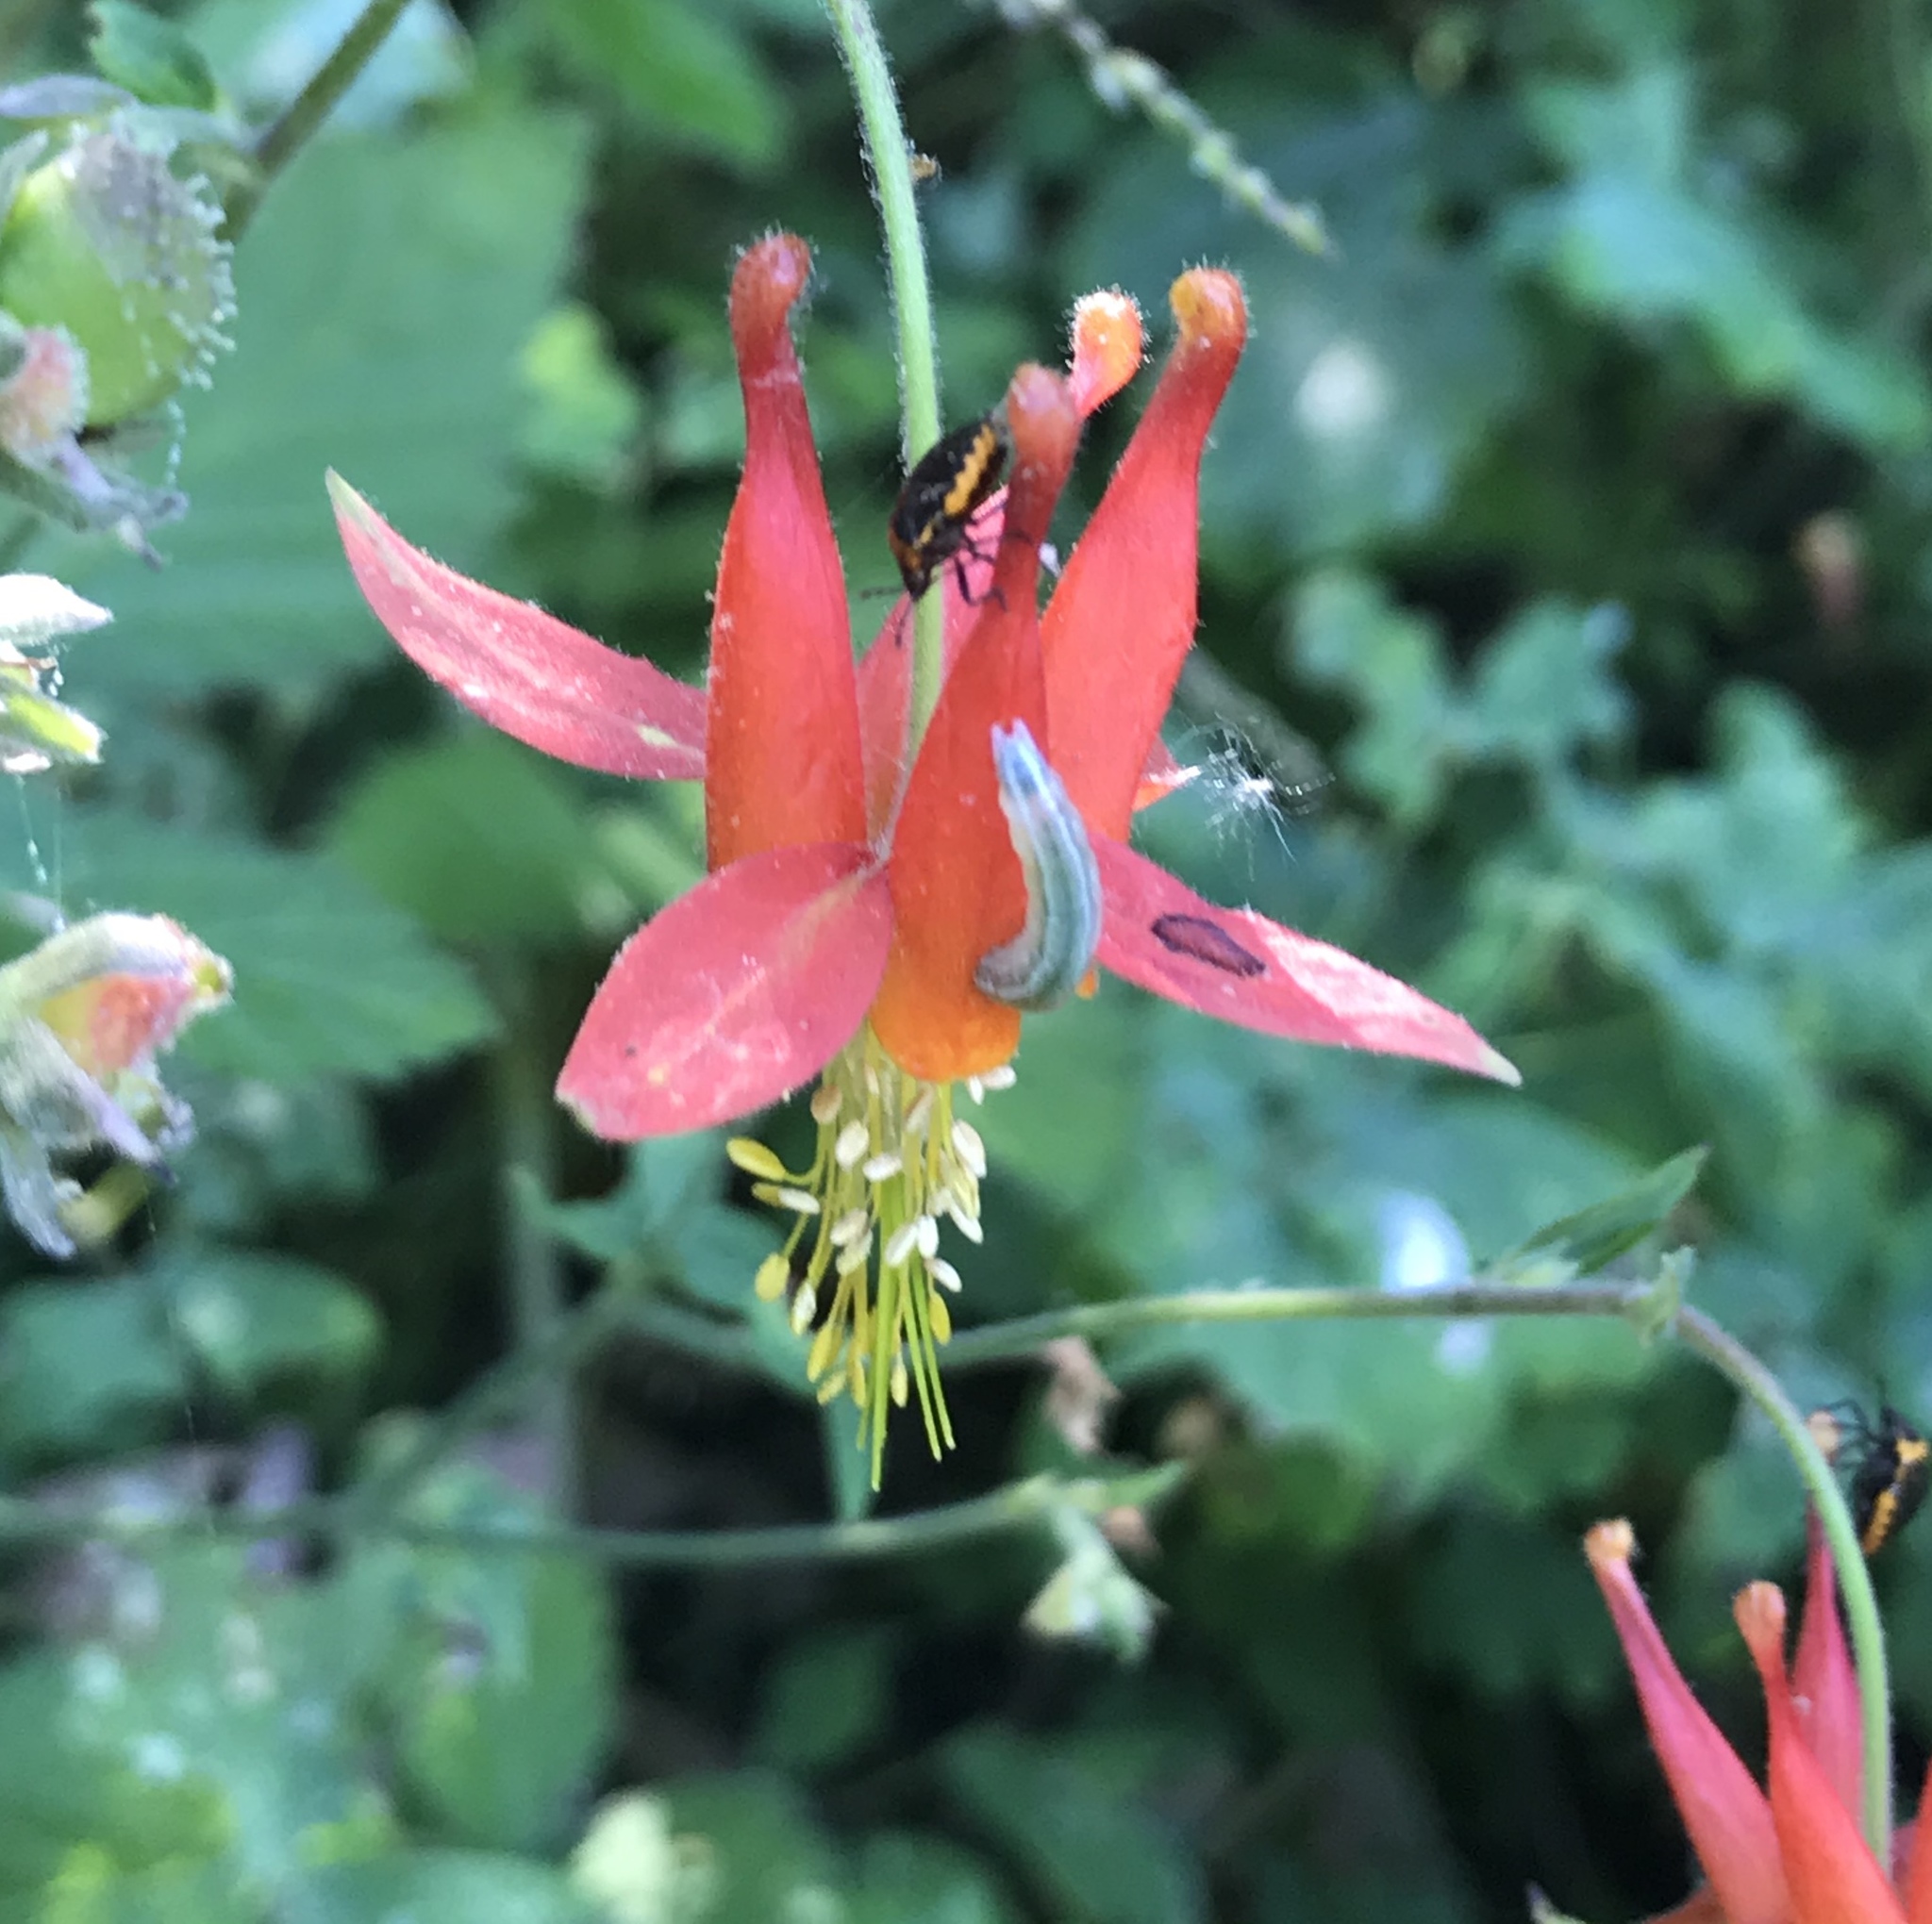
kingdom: Plantae
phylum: Tracheophyta
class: Magnoliopsida
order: Ranunculales
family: Ranunculaceae
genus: Aquilegia
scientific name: Aquilegia formosa
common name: Sitka columbine
